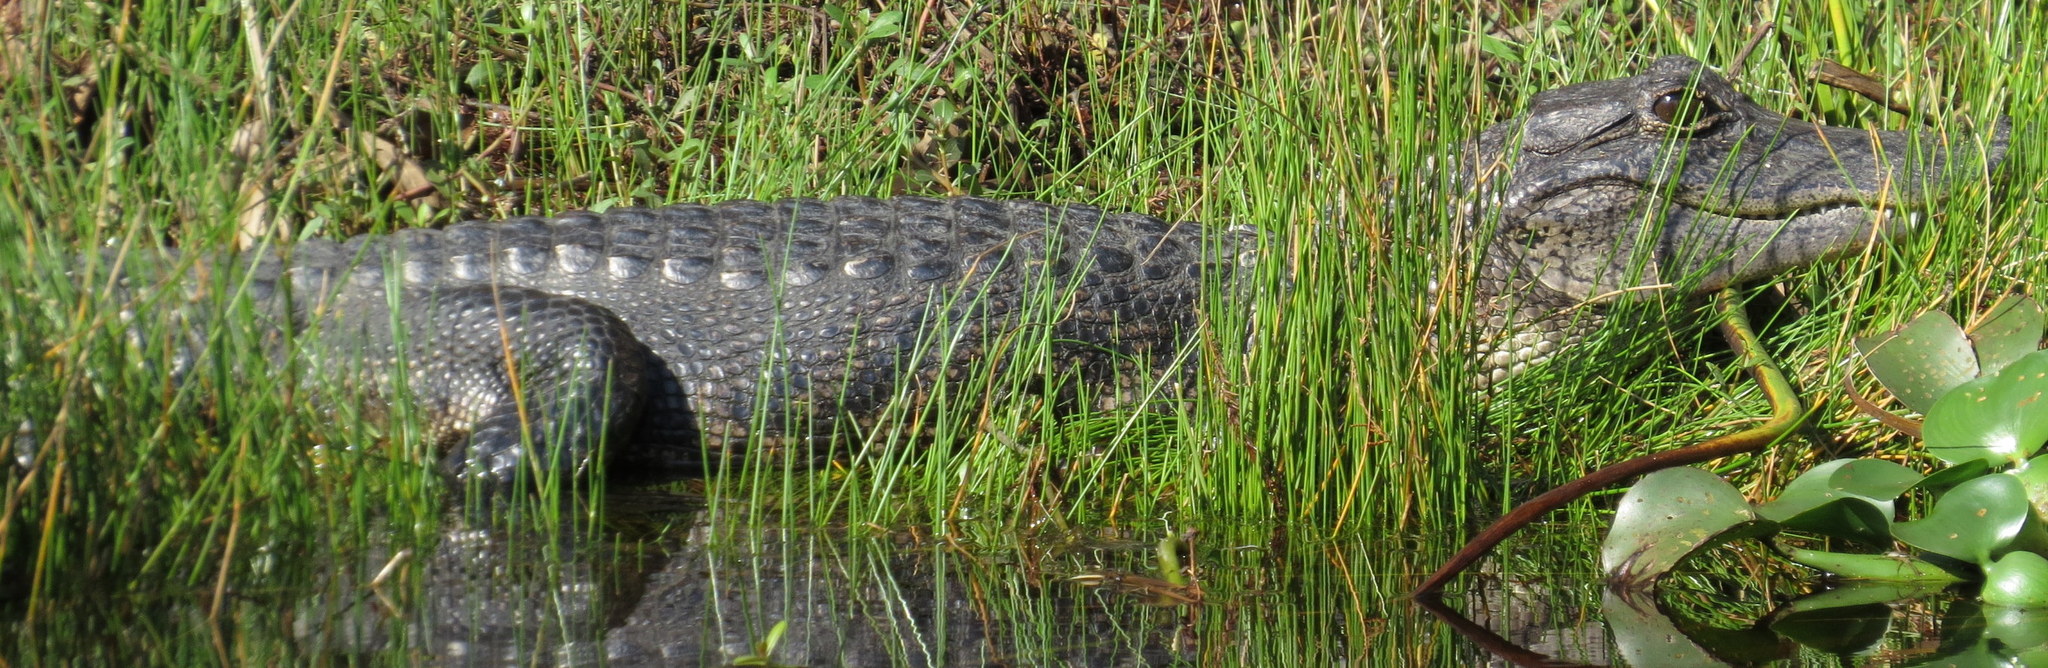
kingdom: Animalia
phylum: Chordata
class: Crocodylia
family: Alligatoridae
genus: Alligator
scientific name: Alligator mississippiensis
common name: American alligator
